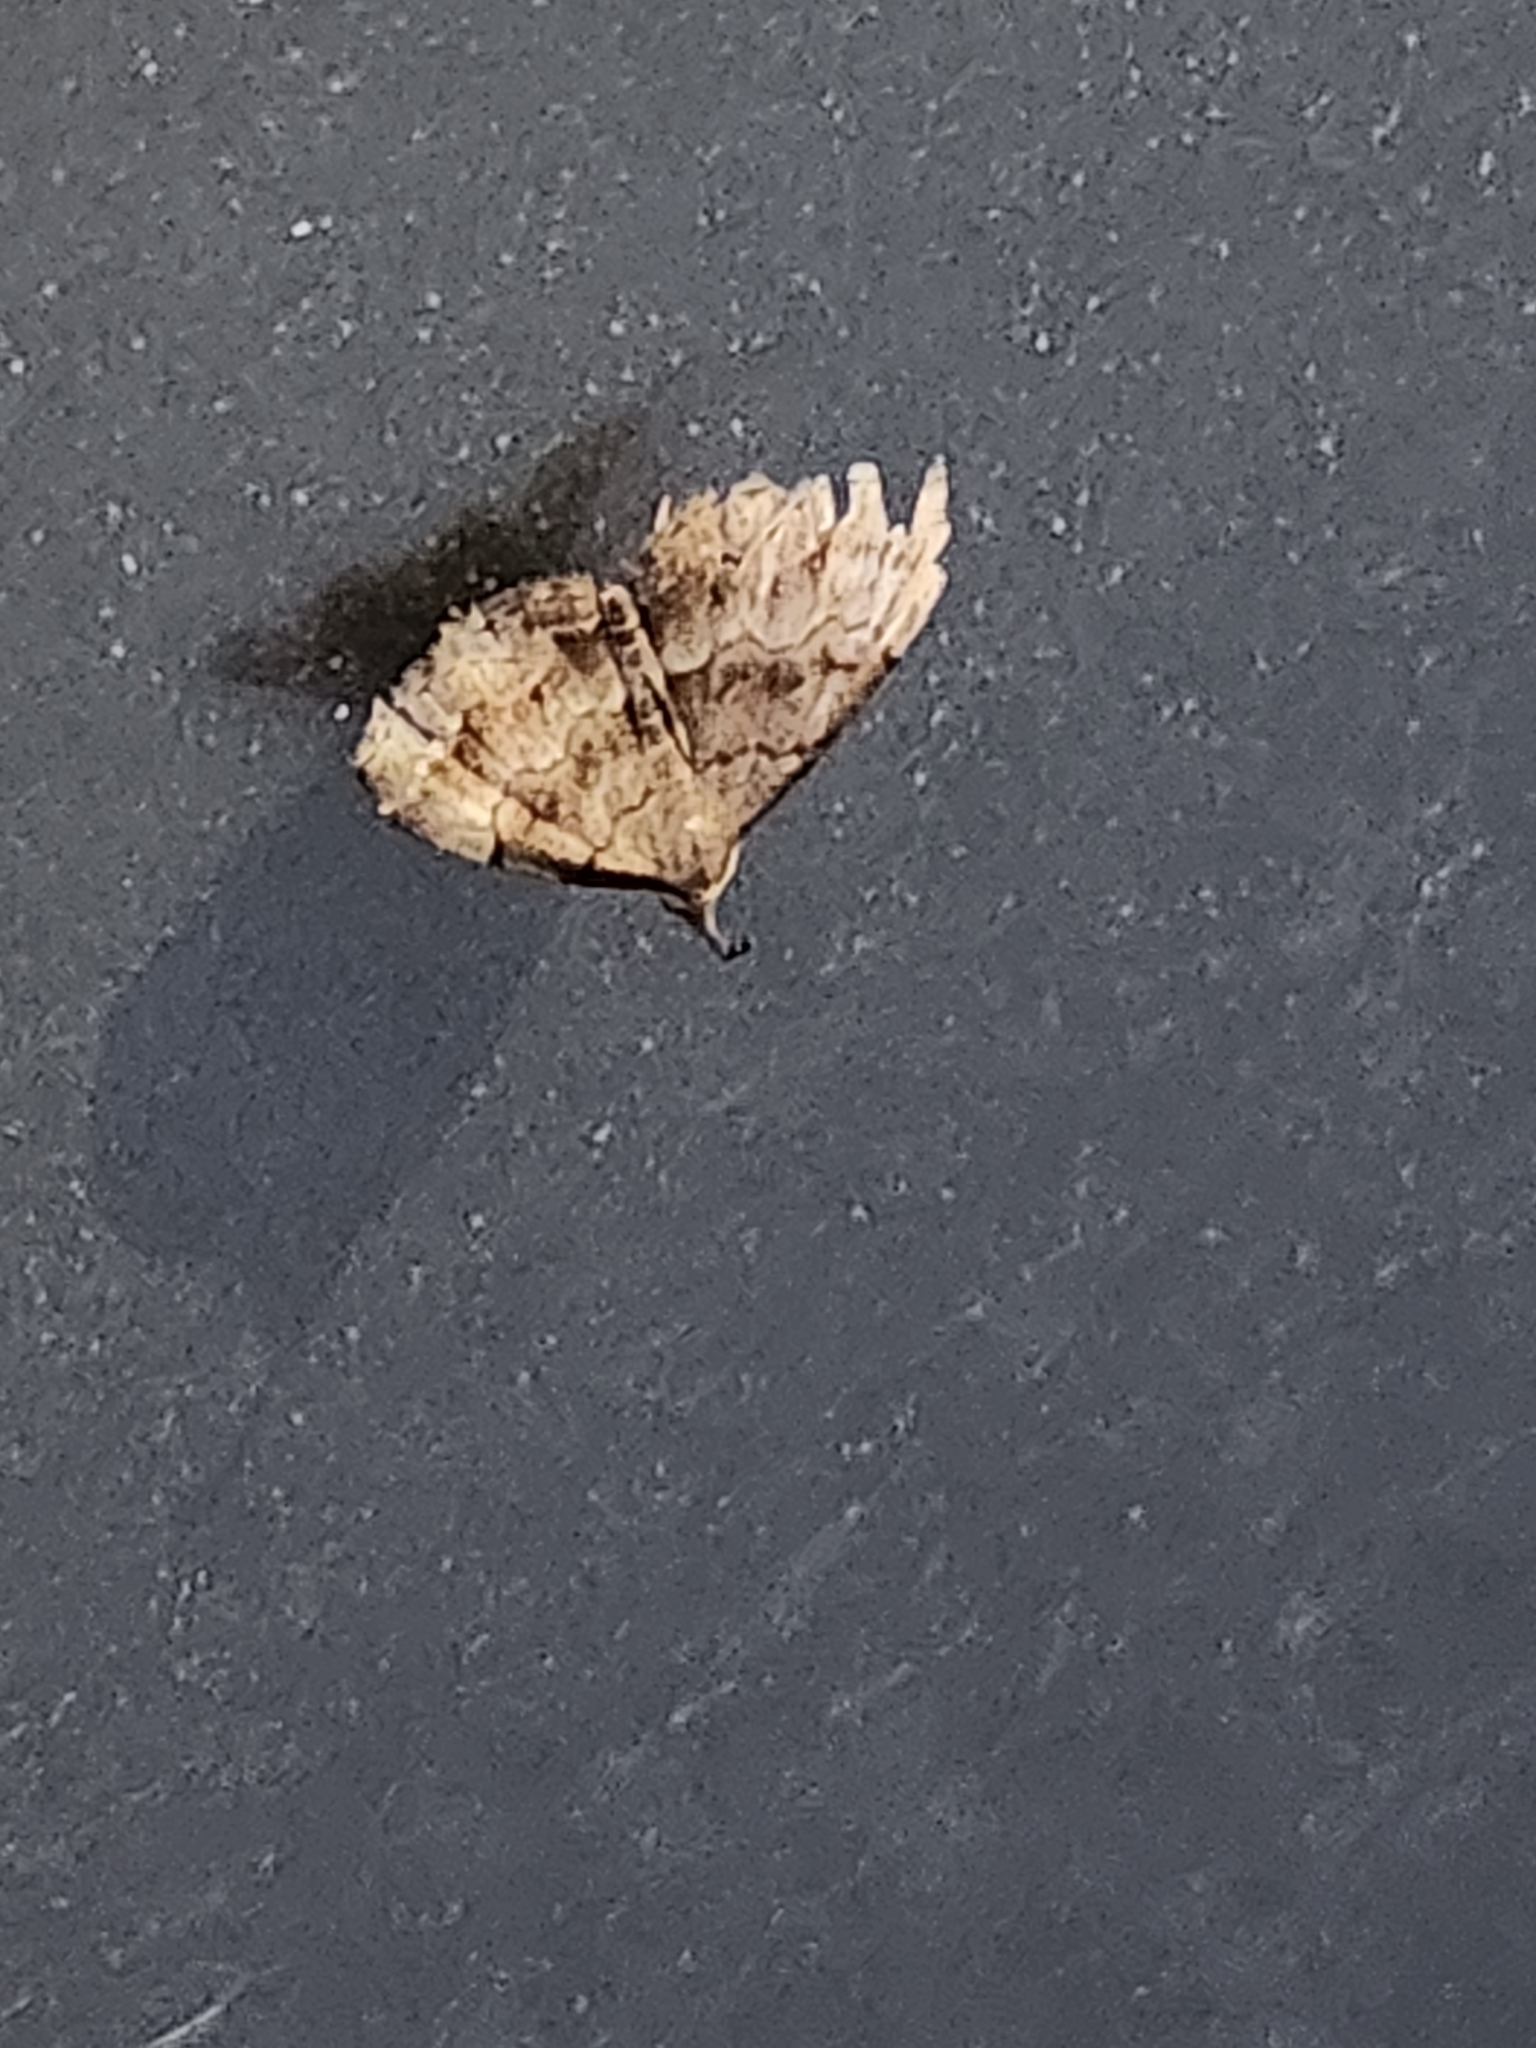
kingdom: Animalia
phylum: Arthropoda
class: Insecta
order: Lepidoptera
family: Erebidae
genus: Phalaenostola
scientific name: Phalaenostola larentioides
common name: Black-banded owlet
